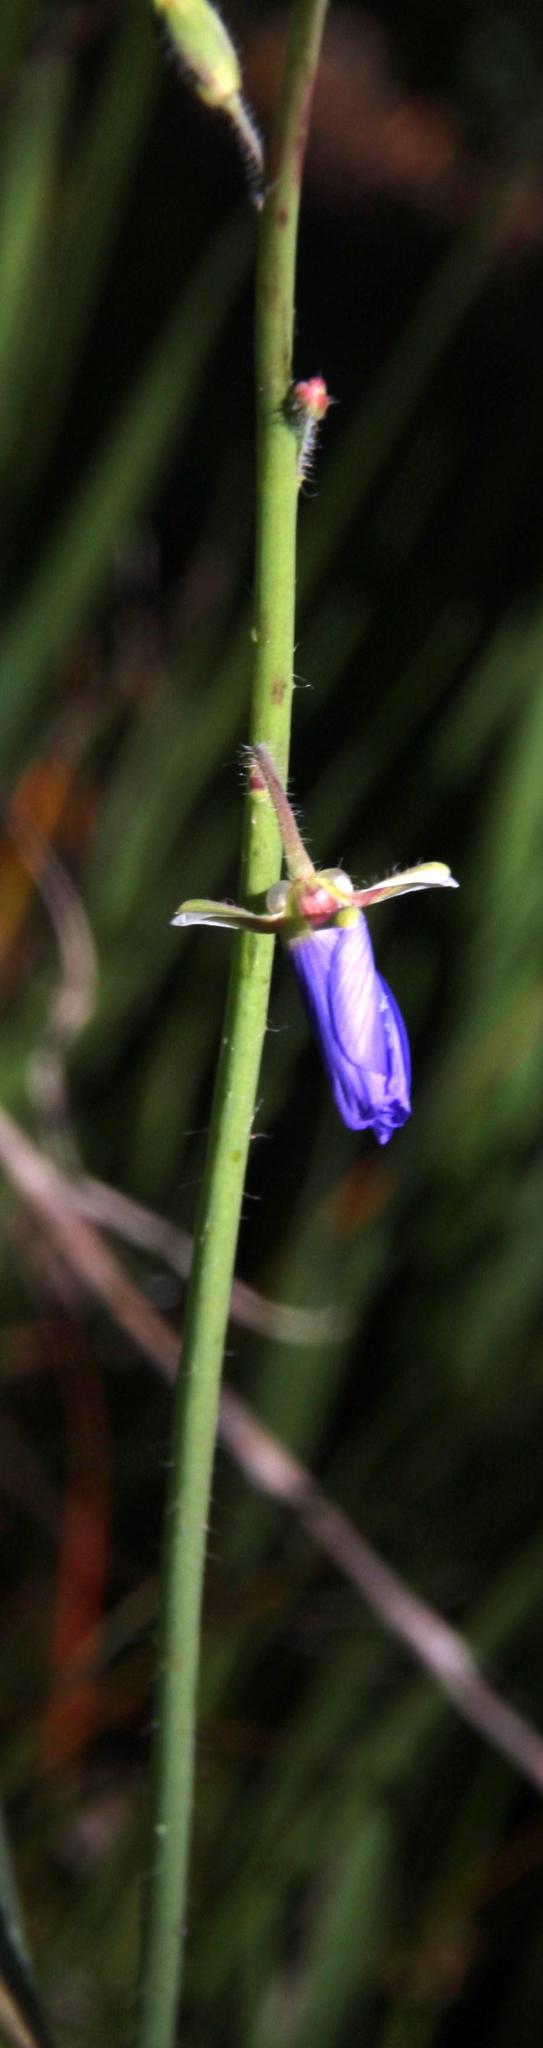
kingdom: Plantae
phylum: Tracheophyta
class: Magnoliopsida
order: Brassicales
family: Brassicaceae
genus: Heliophila
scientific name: Heliophila africana
